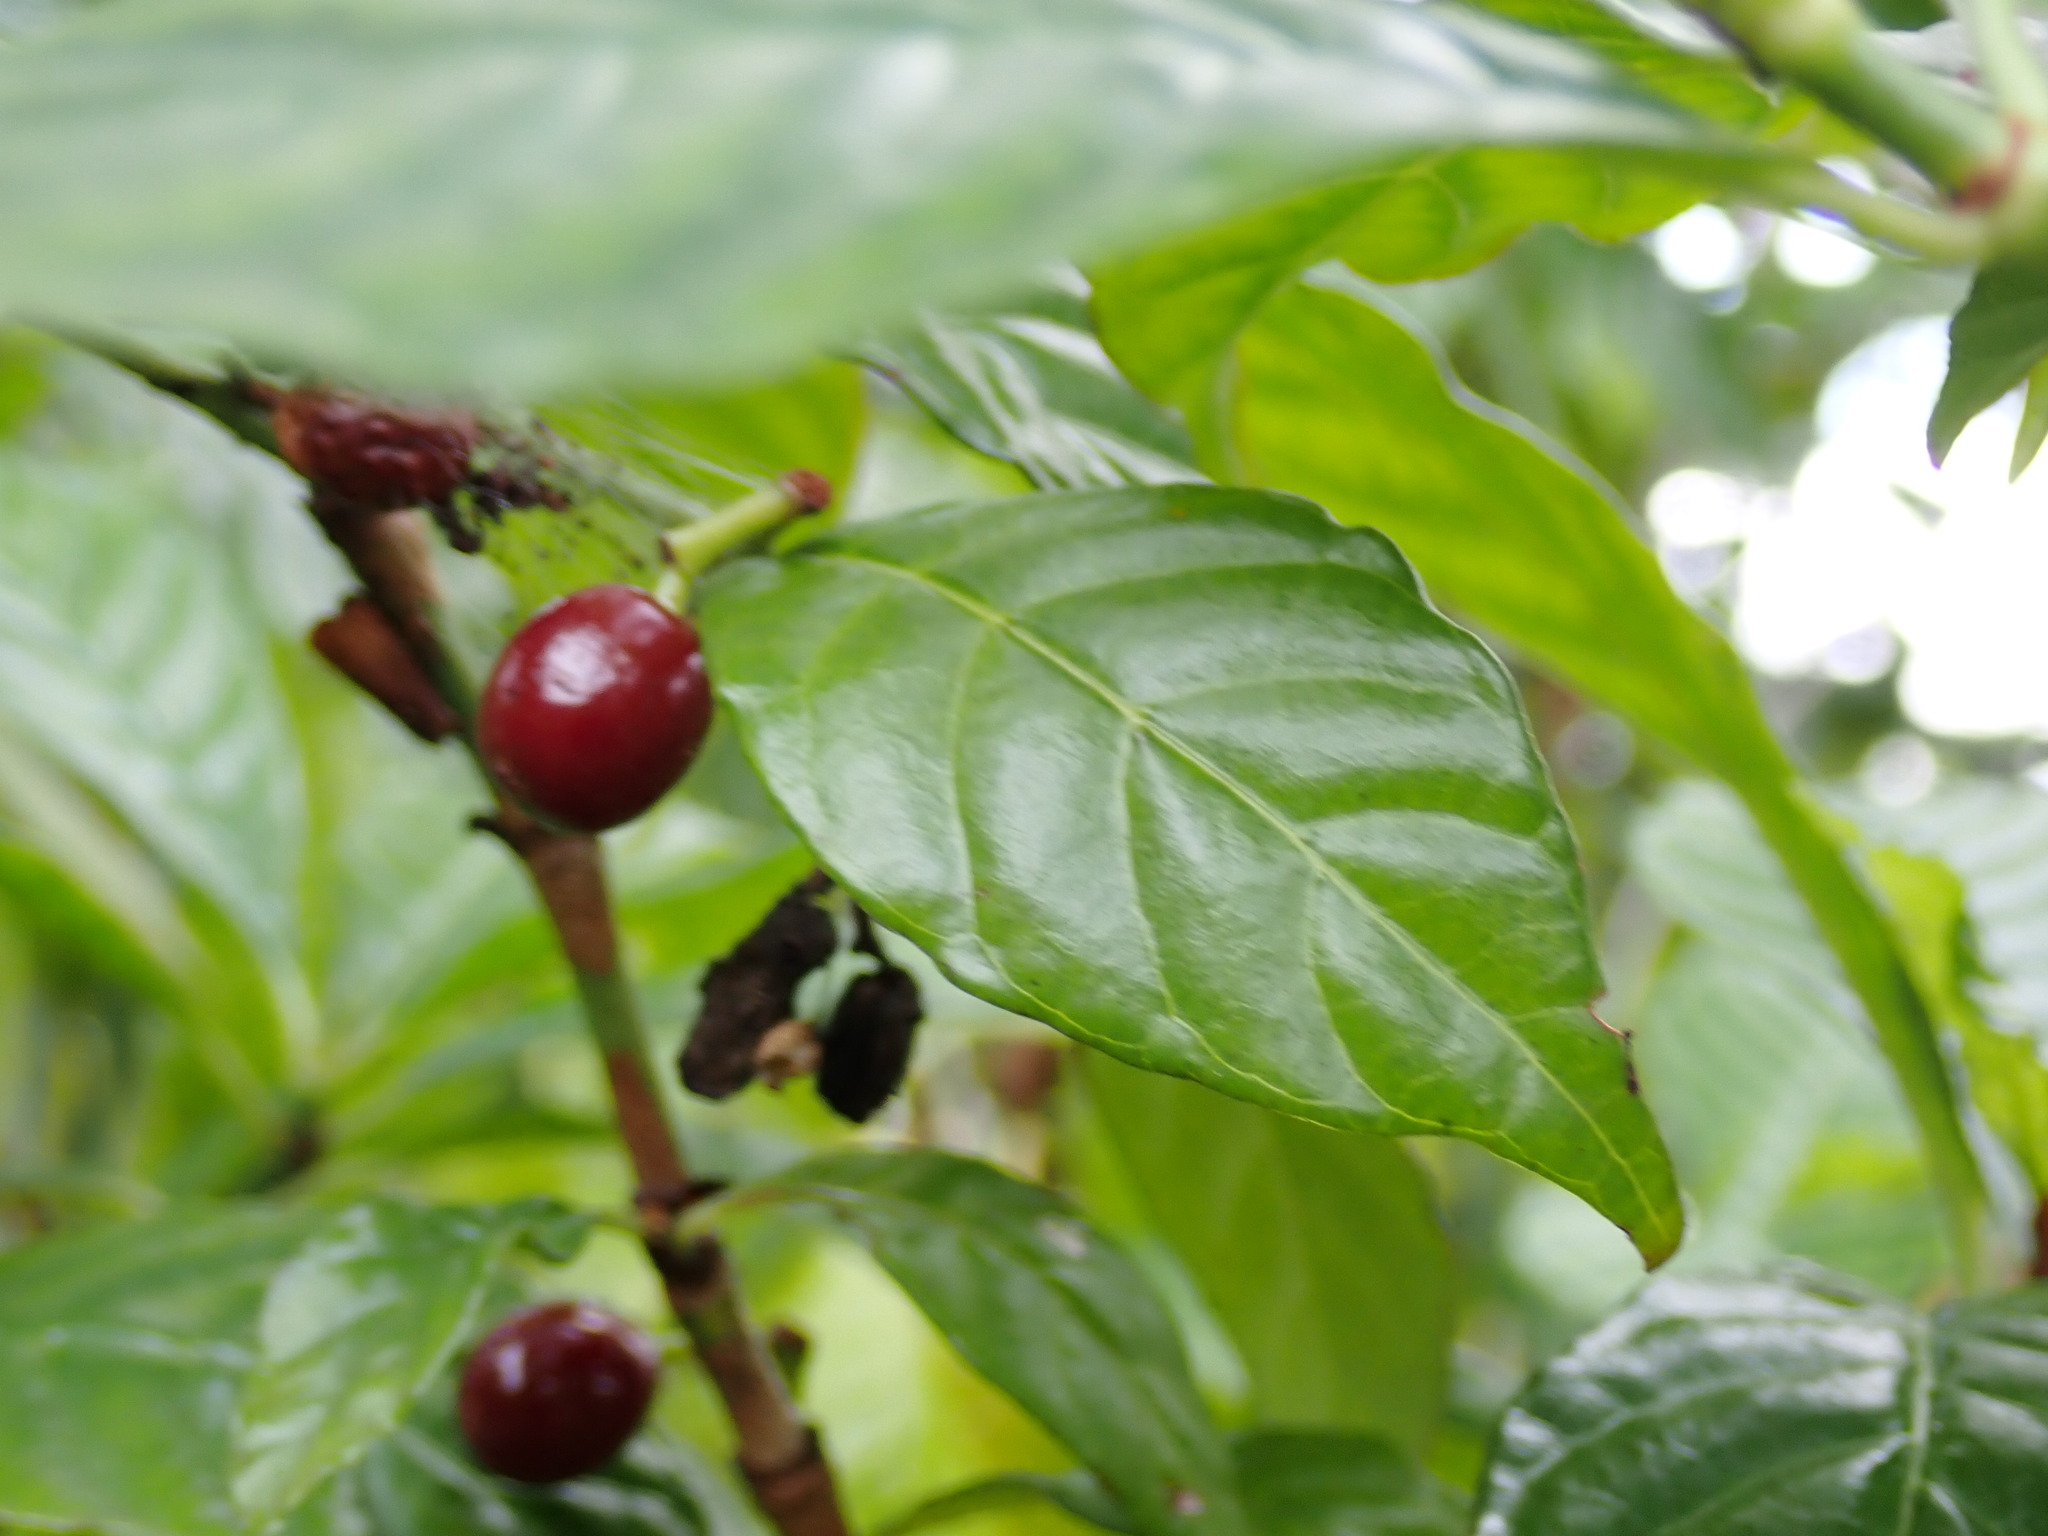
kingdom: Plantae
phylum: Tracheophyta
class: Magnoliopsida
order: Gentianales
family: Rubiaceae
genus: Psychotria
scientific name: Psychotria nervosa
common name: Bastard cankerberry
